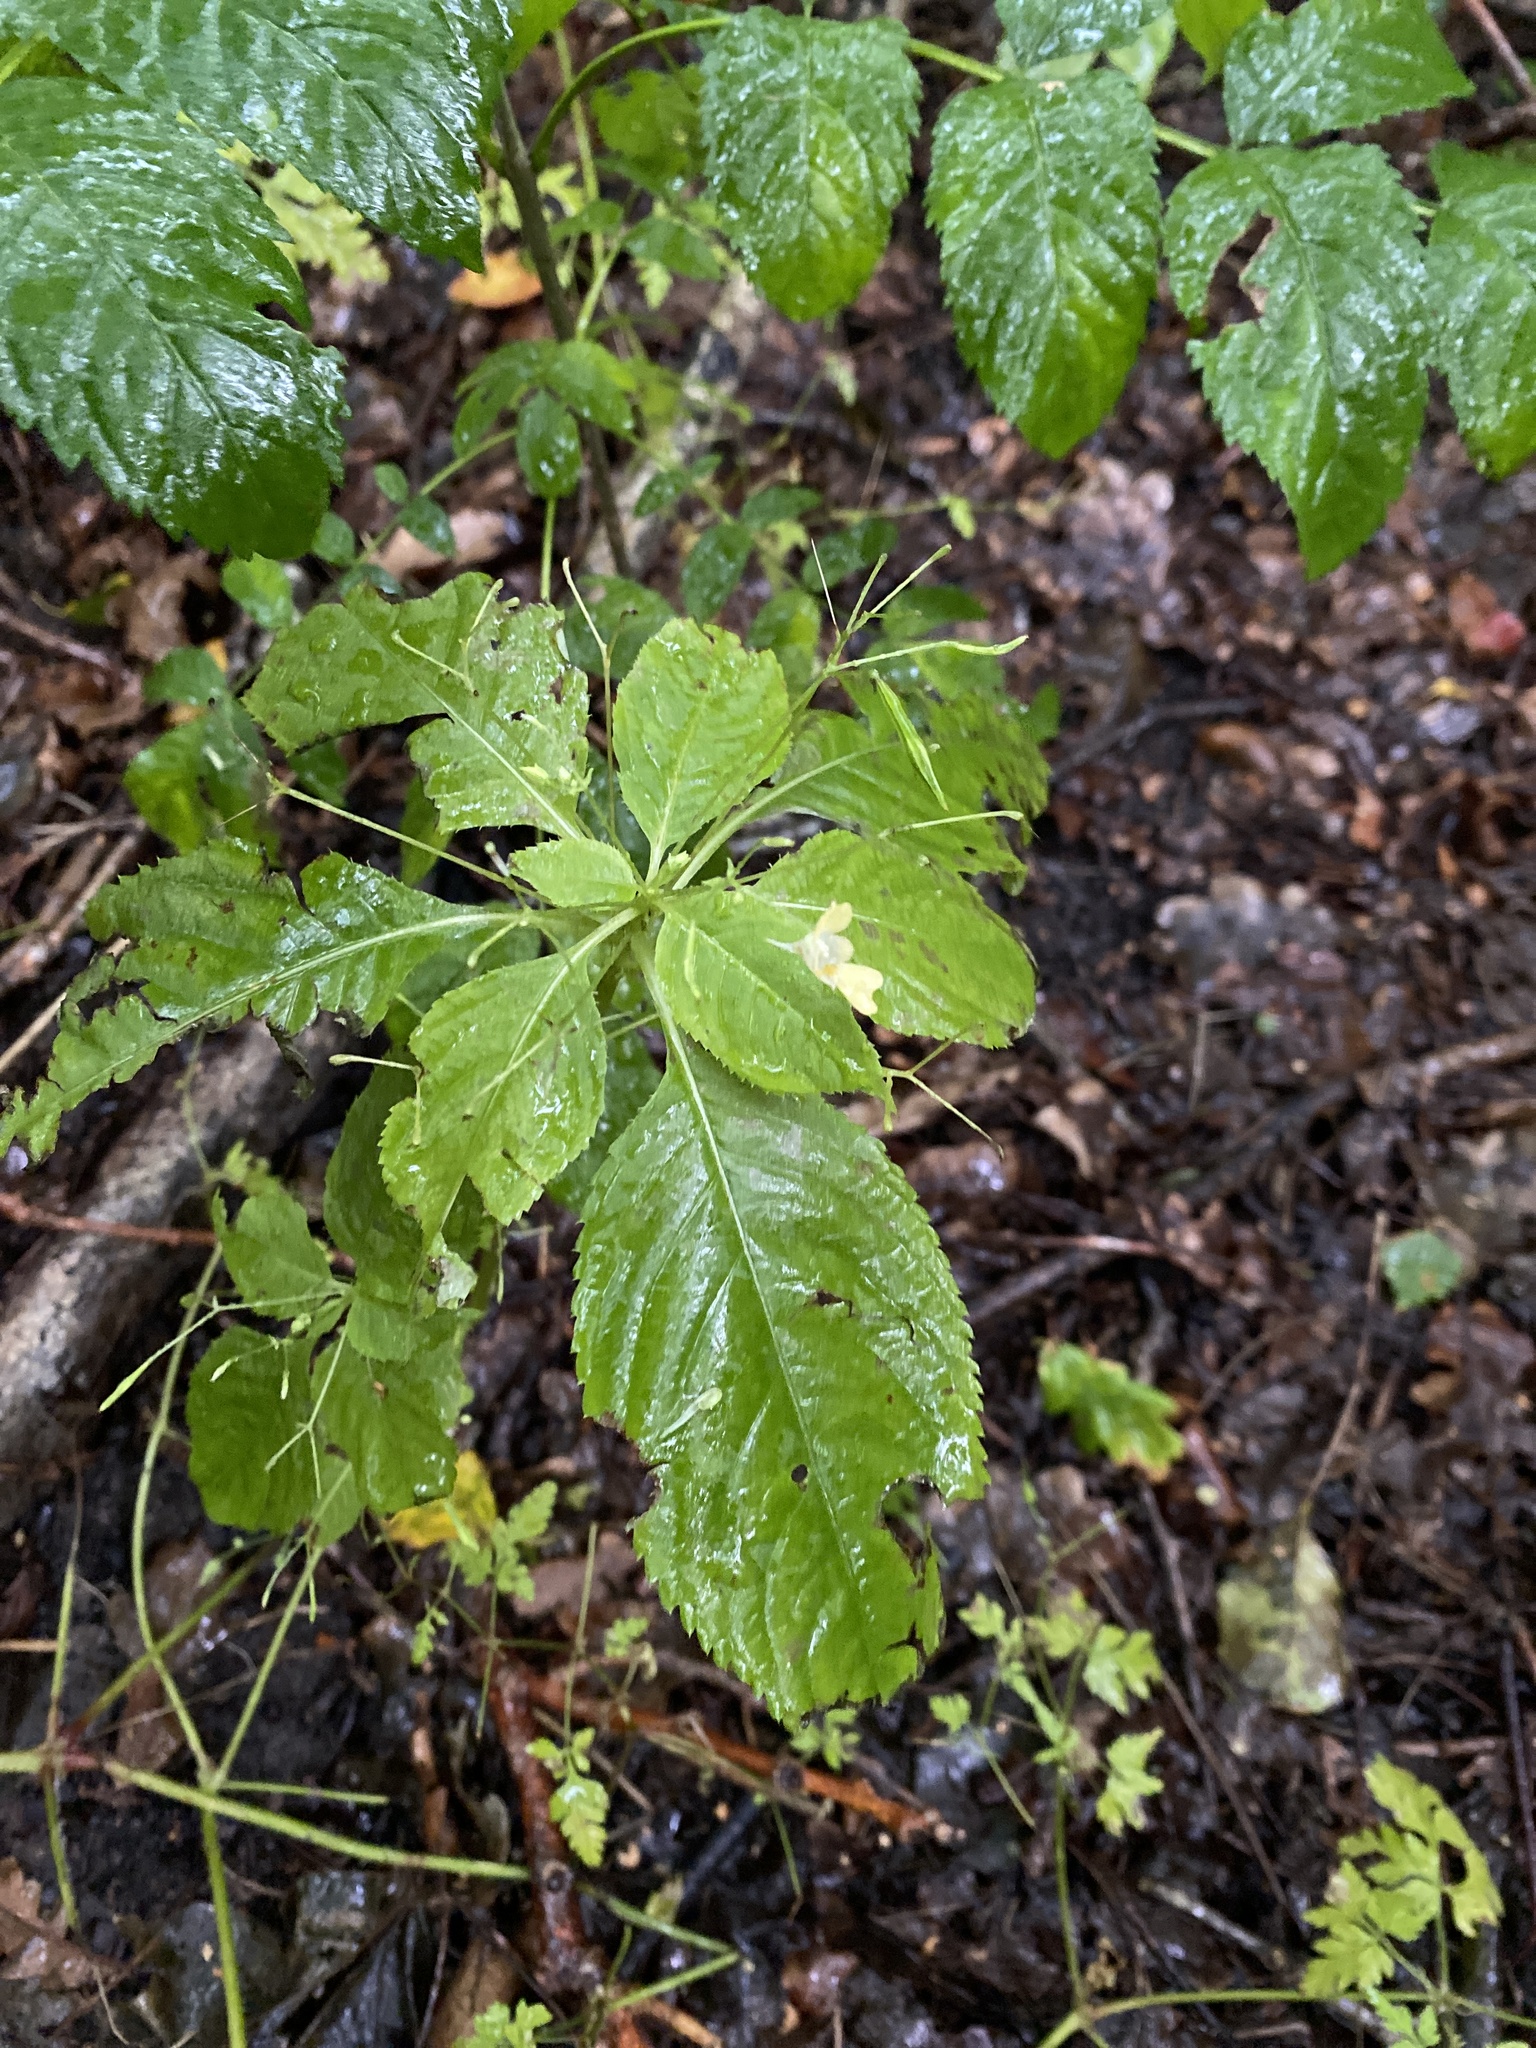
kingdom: Plantae
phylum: Tracheophyta
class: Magnoliopsida
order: Ericales
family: Balsaminaceae
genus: Impatiens
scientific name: Impatiens parviflora
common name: Small balsam
